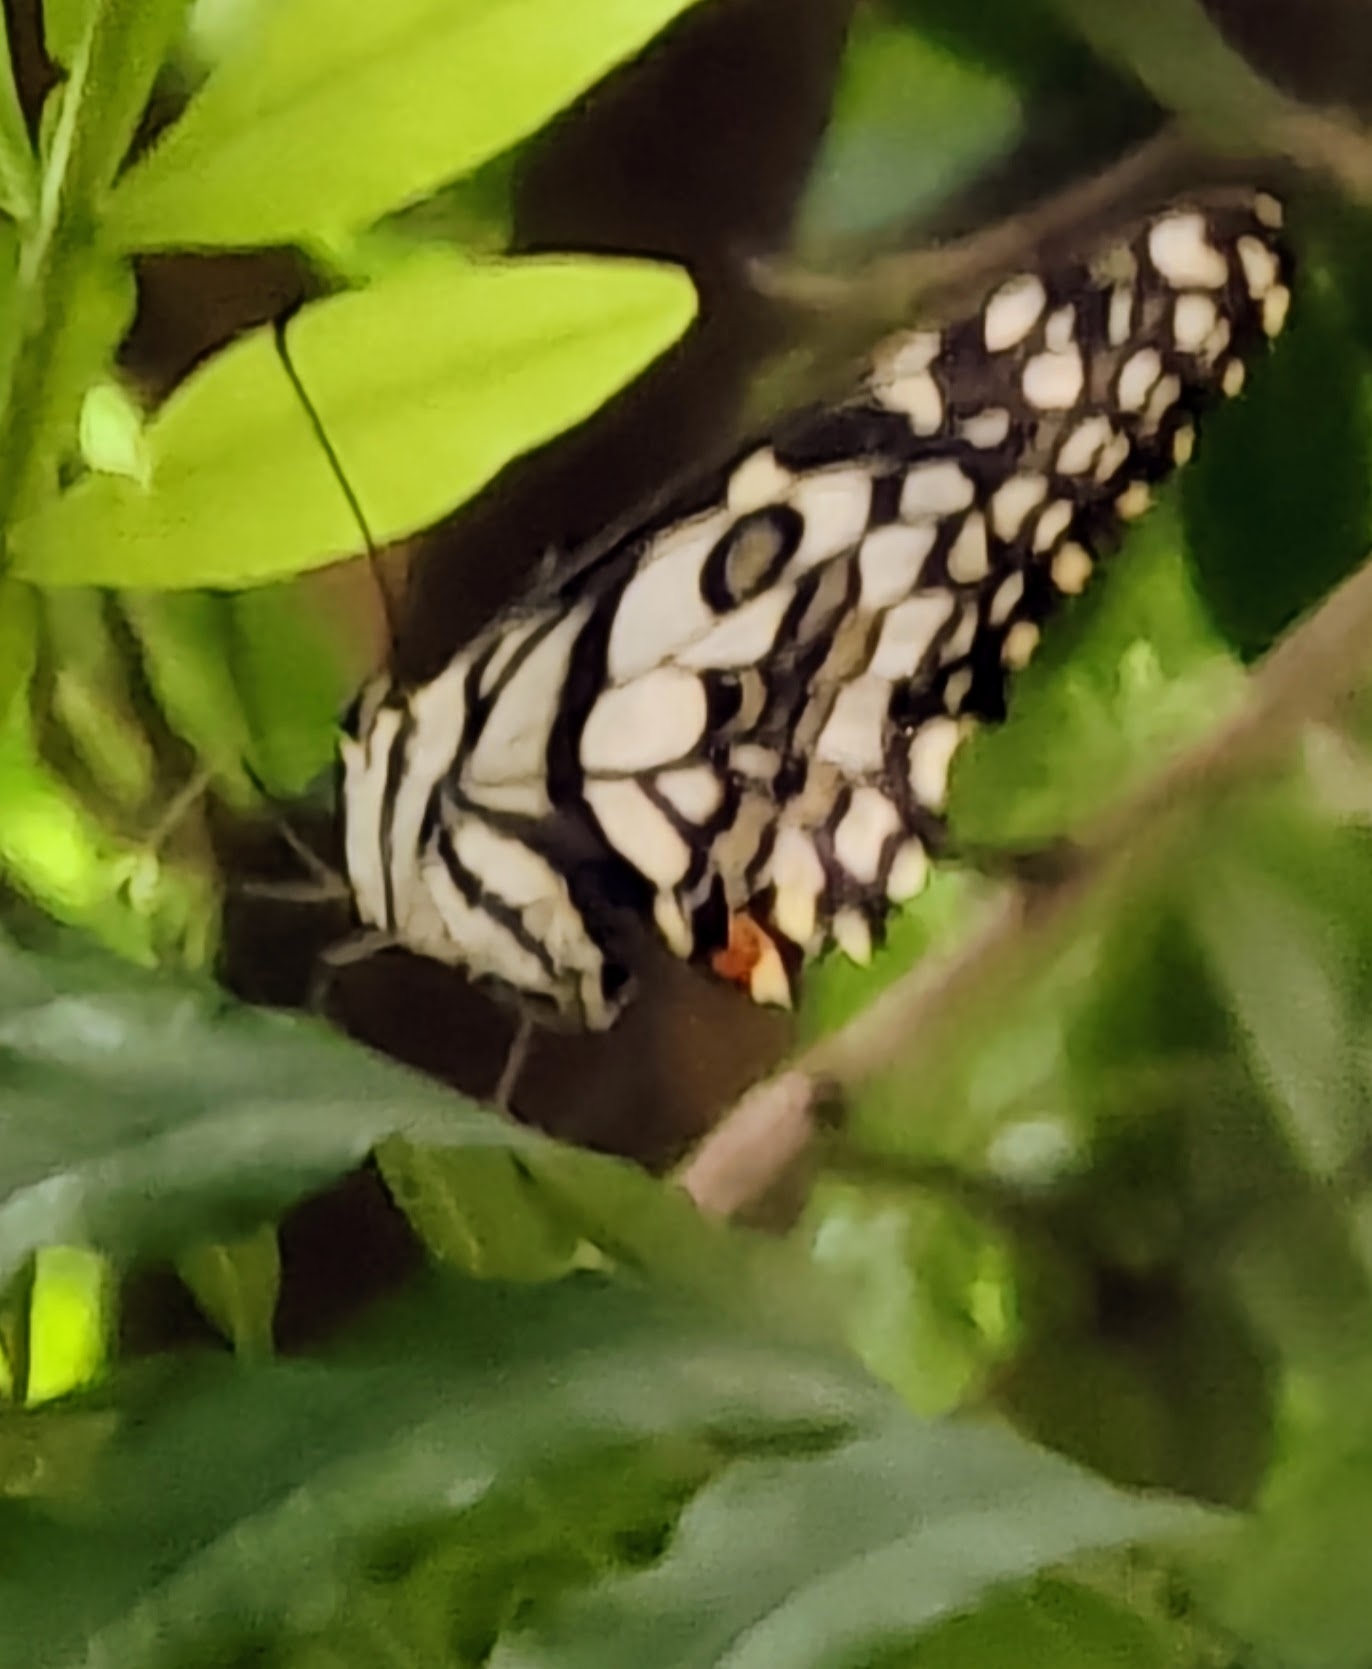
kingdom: Animalia
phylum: Arthropoda
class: Insecta
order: Lepidoptera
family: Papilionidae
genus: Papilio
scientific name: Papilio demoleus
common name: Lime butterfly
